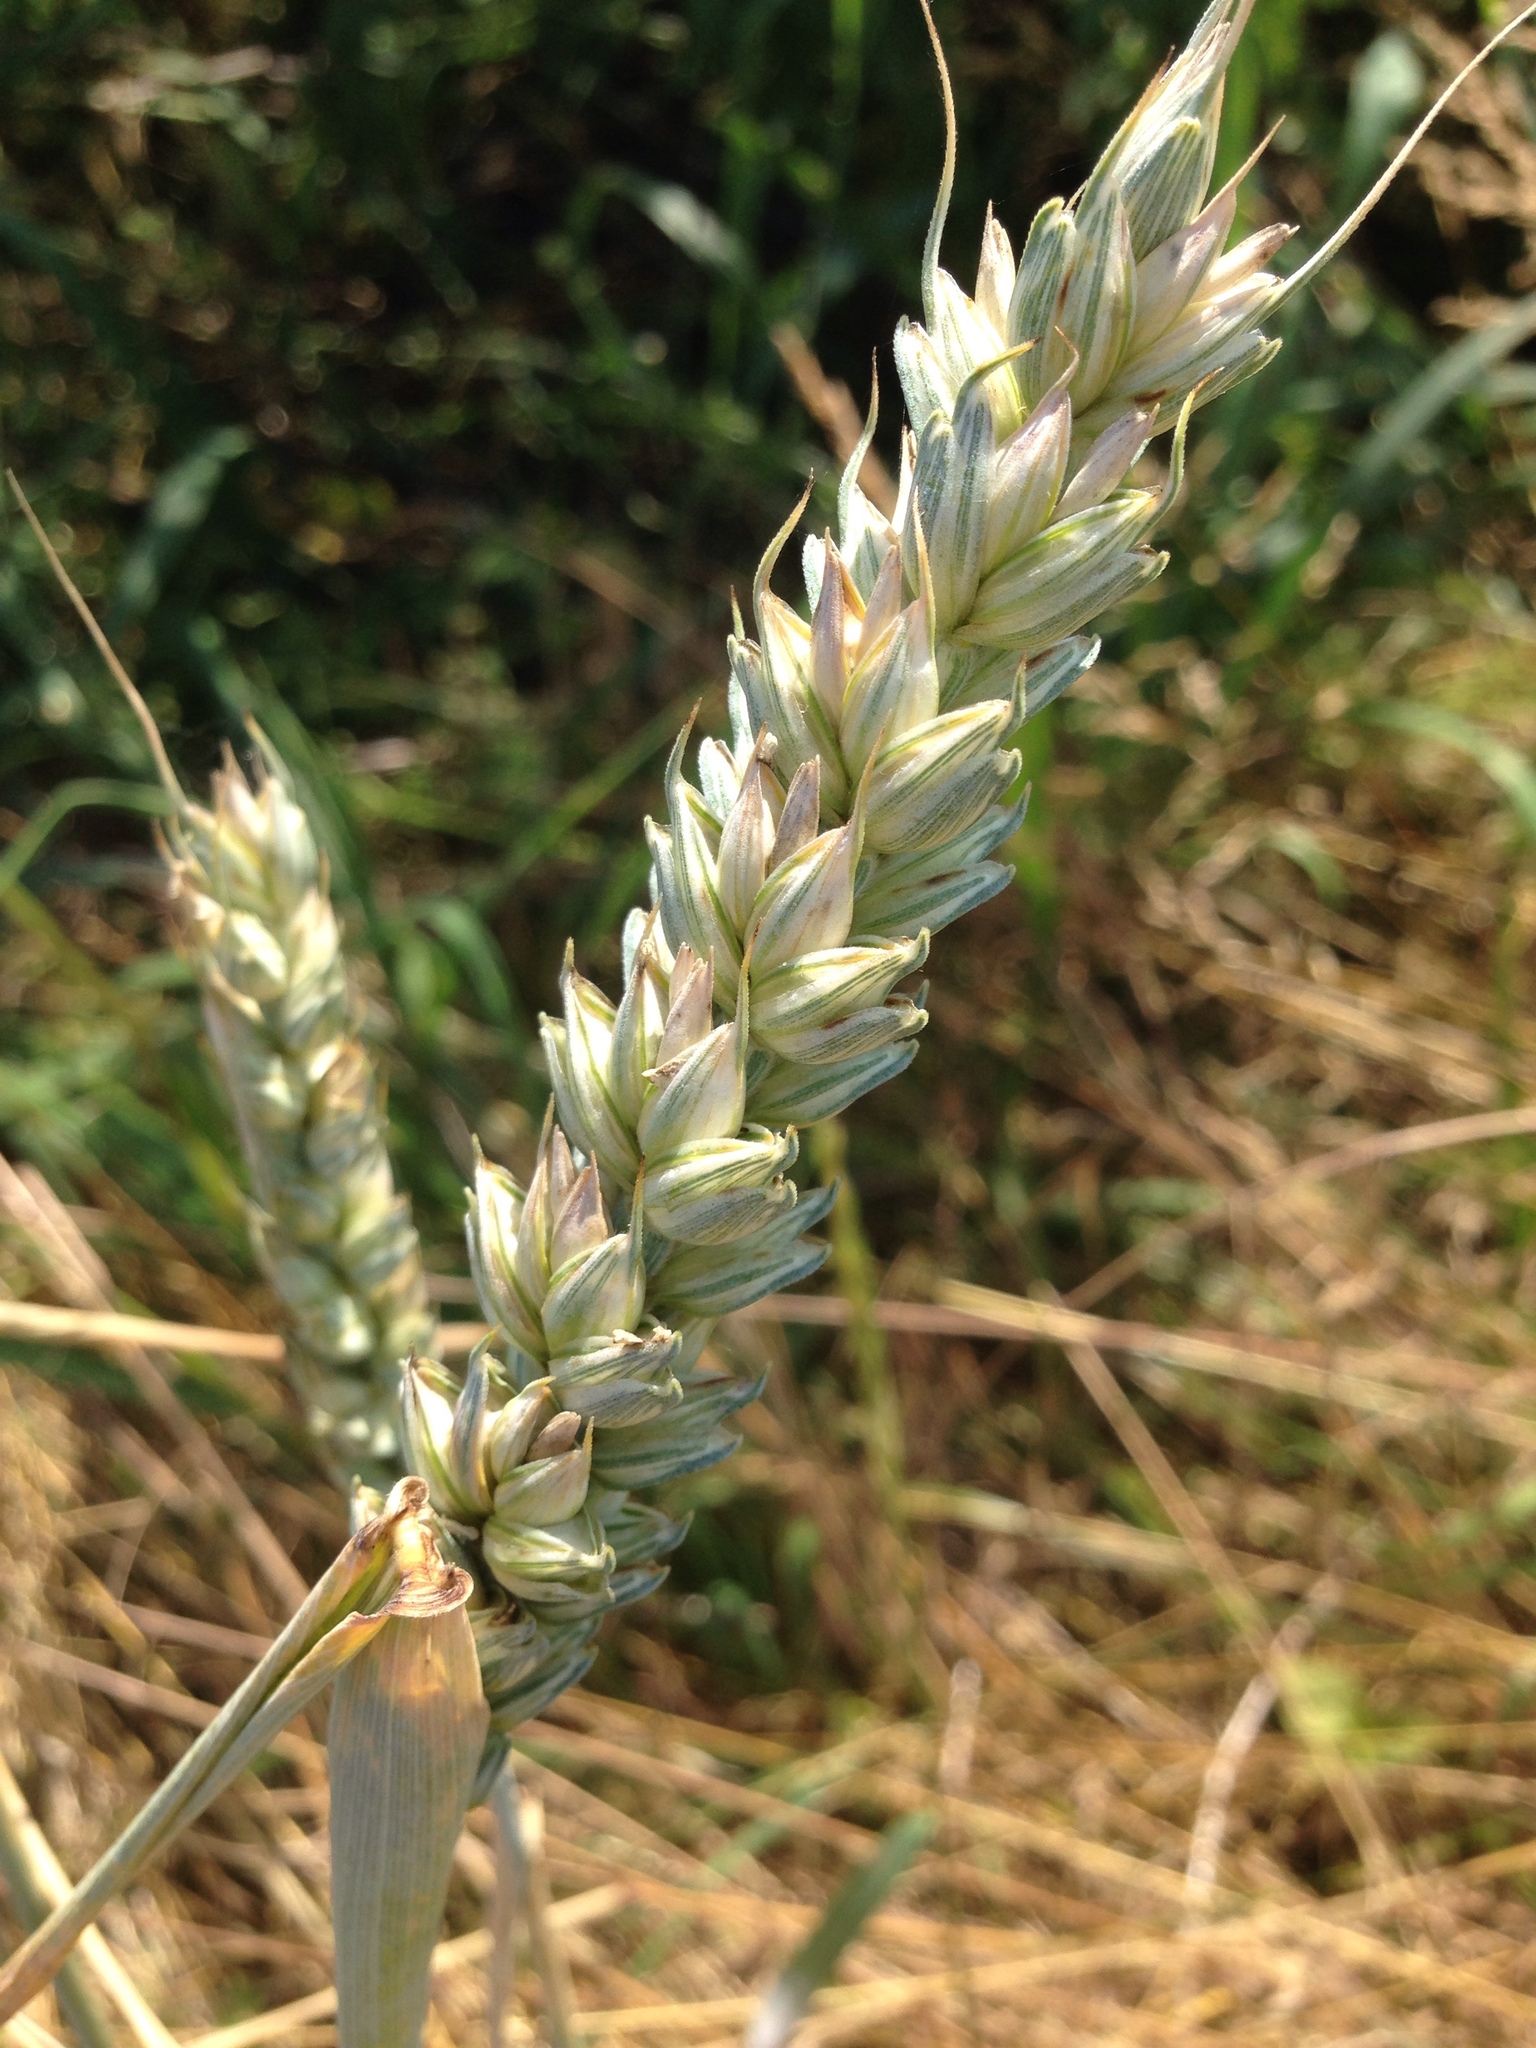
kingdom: Plantae
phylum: Tracheophyta
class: Liliopsida
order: Poales
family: Poaceae
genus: Triticum
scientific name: Triticum aestivum
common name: Common wheat
